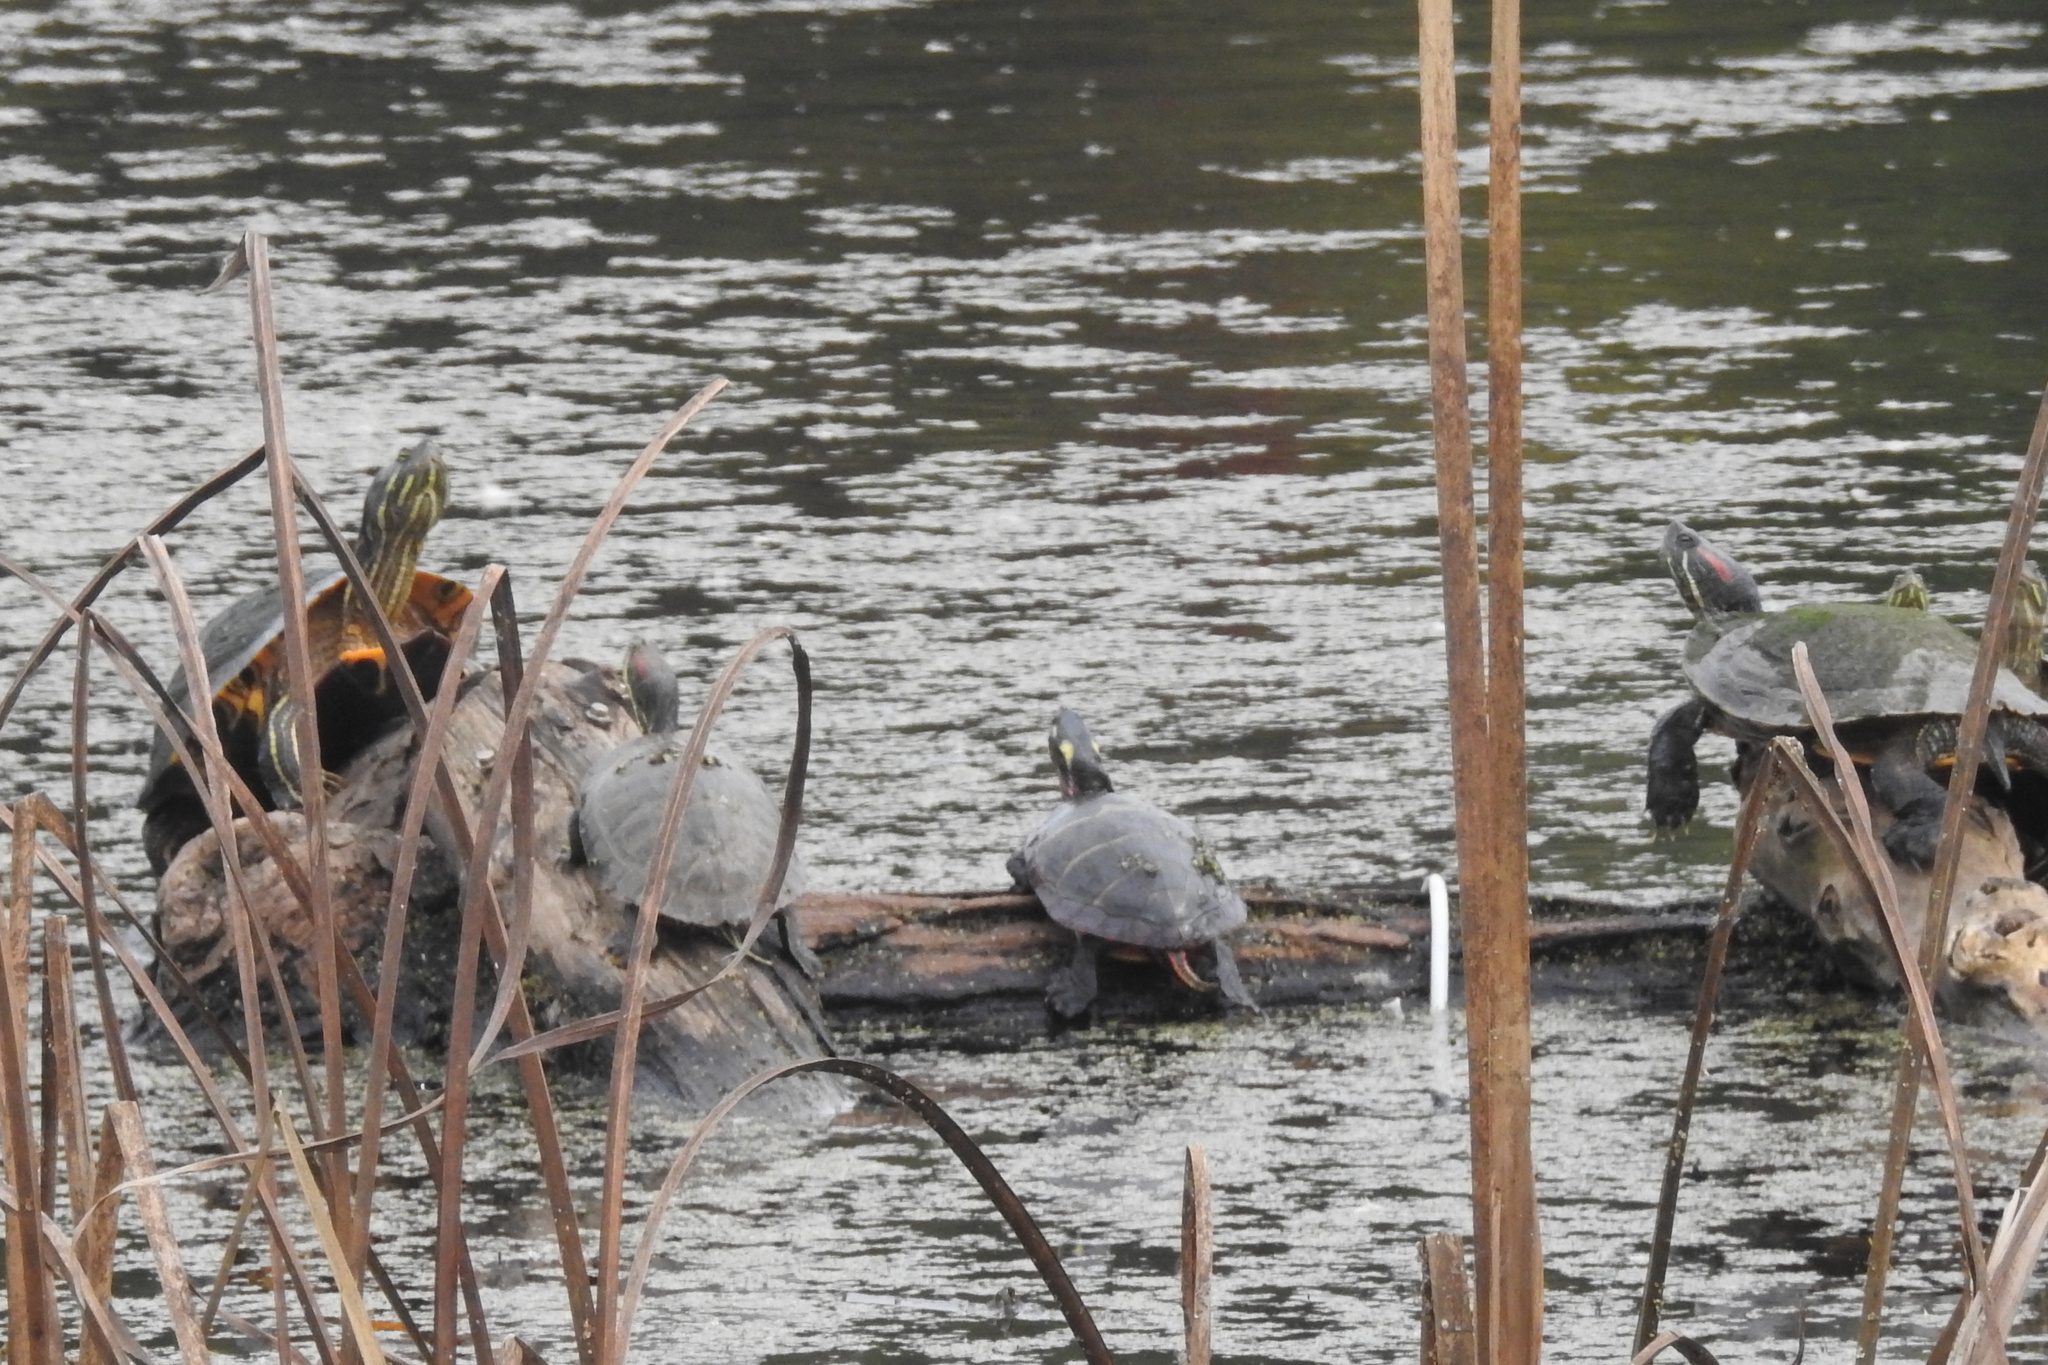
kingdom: Animalia
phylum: Chordata
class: Testudines
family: Emydidae
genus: Trachemys
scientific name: Trachemys scripta
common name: Slider
